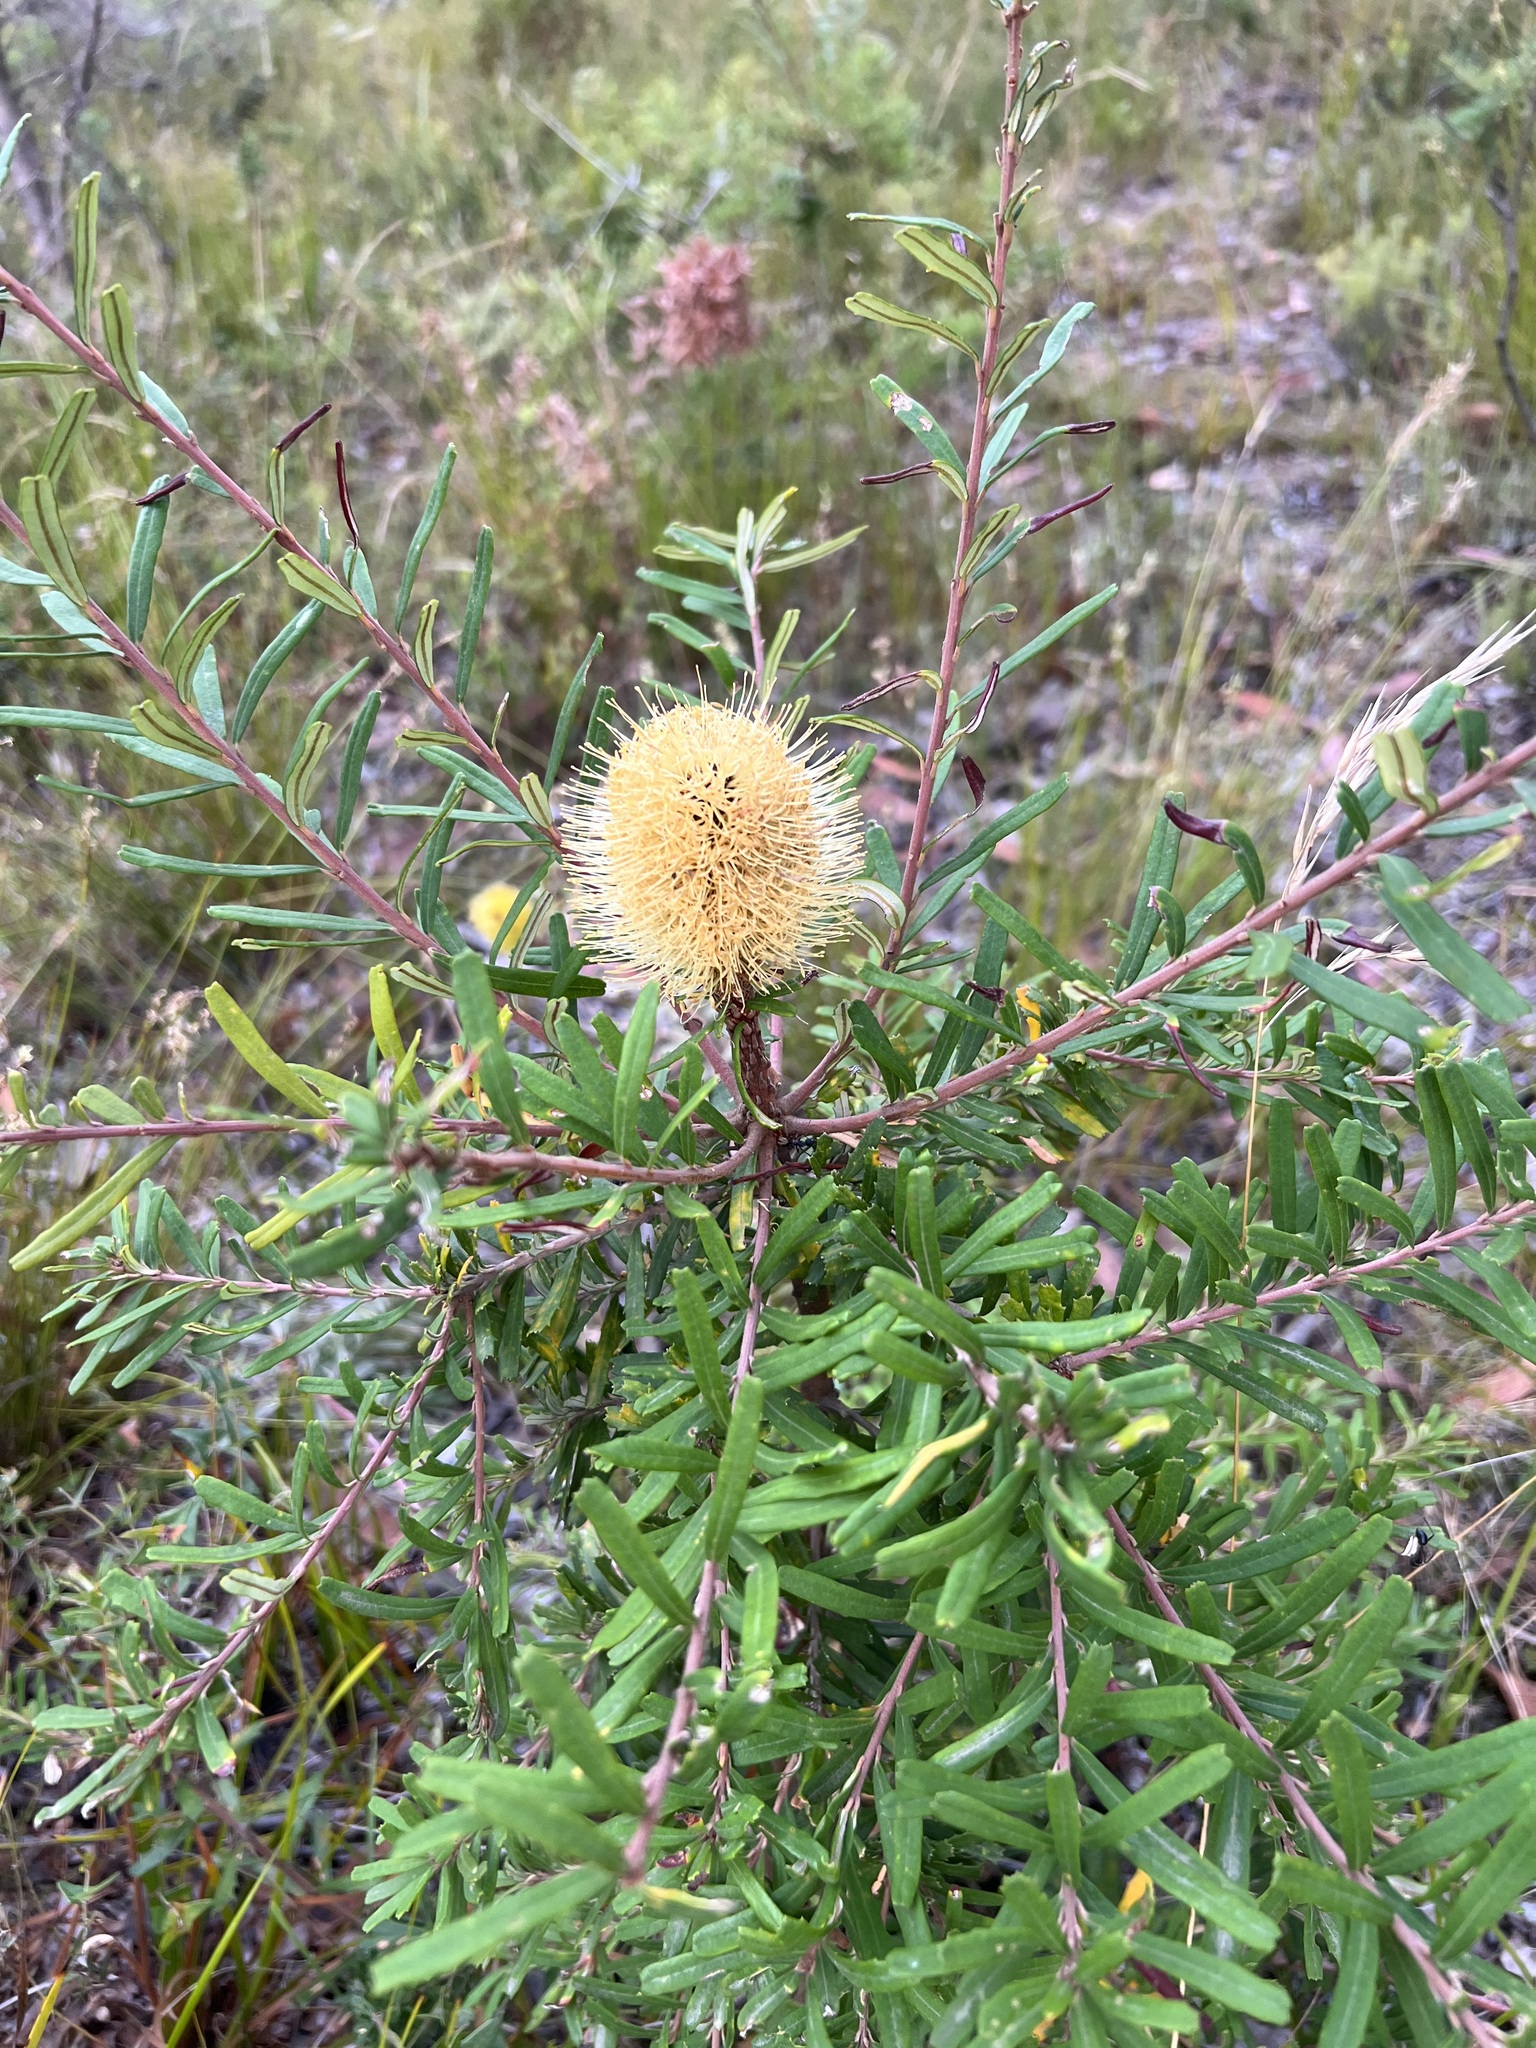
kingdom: Plantae
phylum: Tracheophyta
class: Magnoliopsida
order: Proteales
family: Proteaceae
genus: Banksia
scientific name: Banksia marginata
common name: Silver banksia
